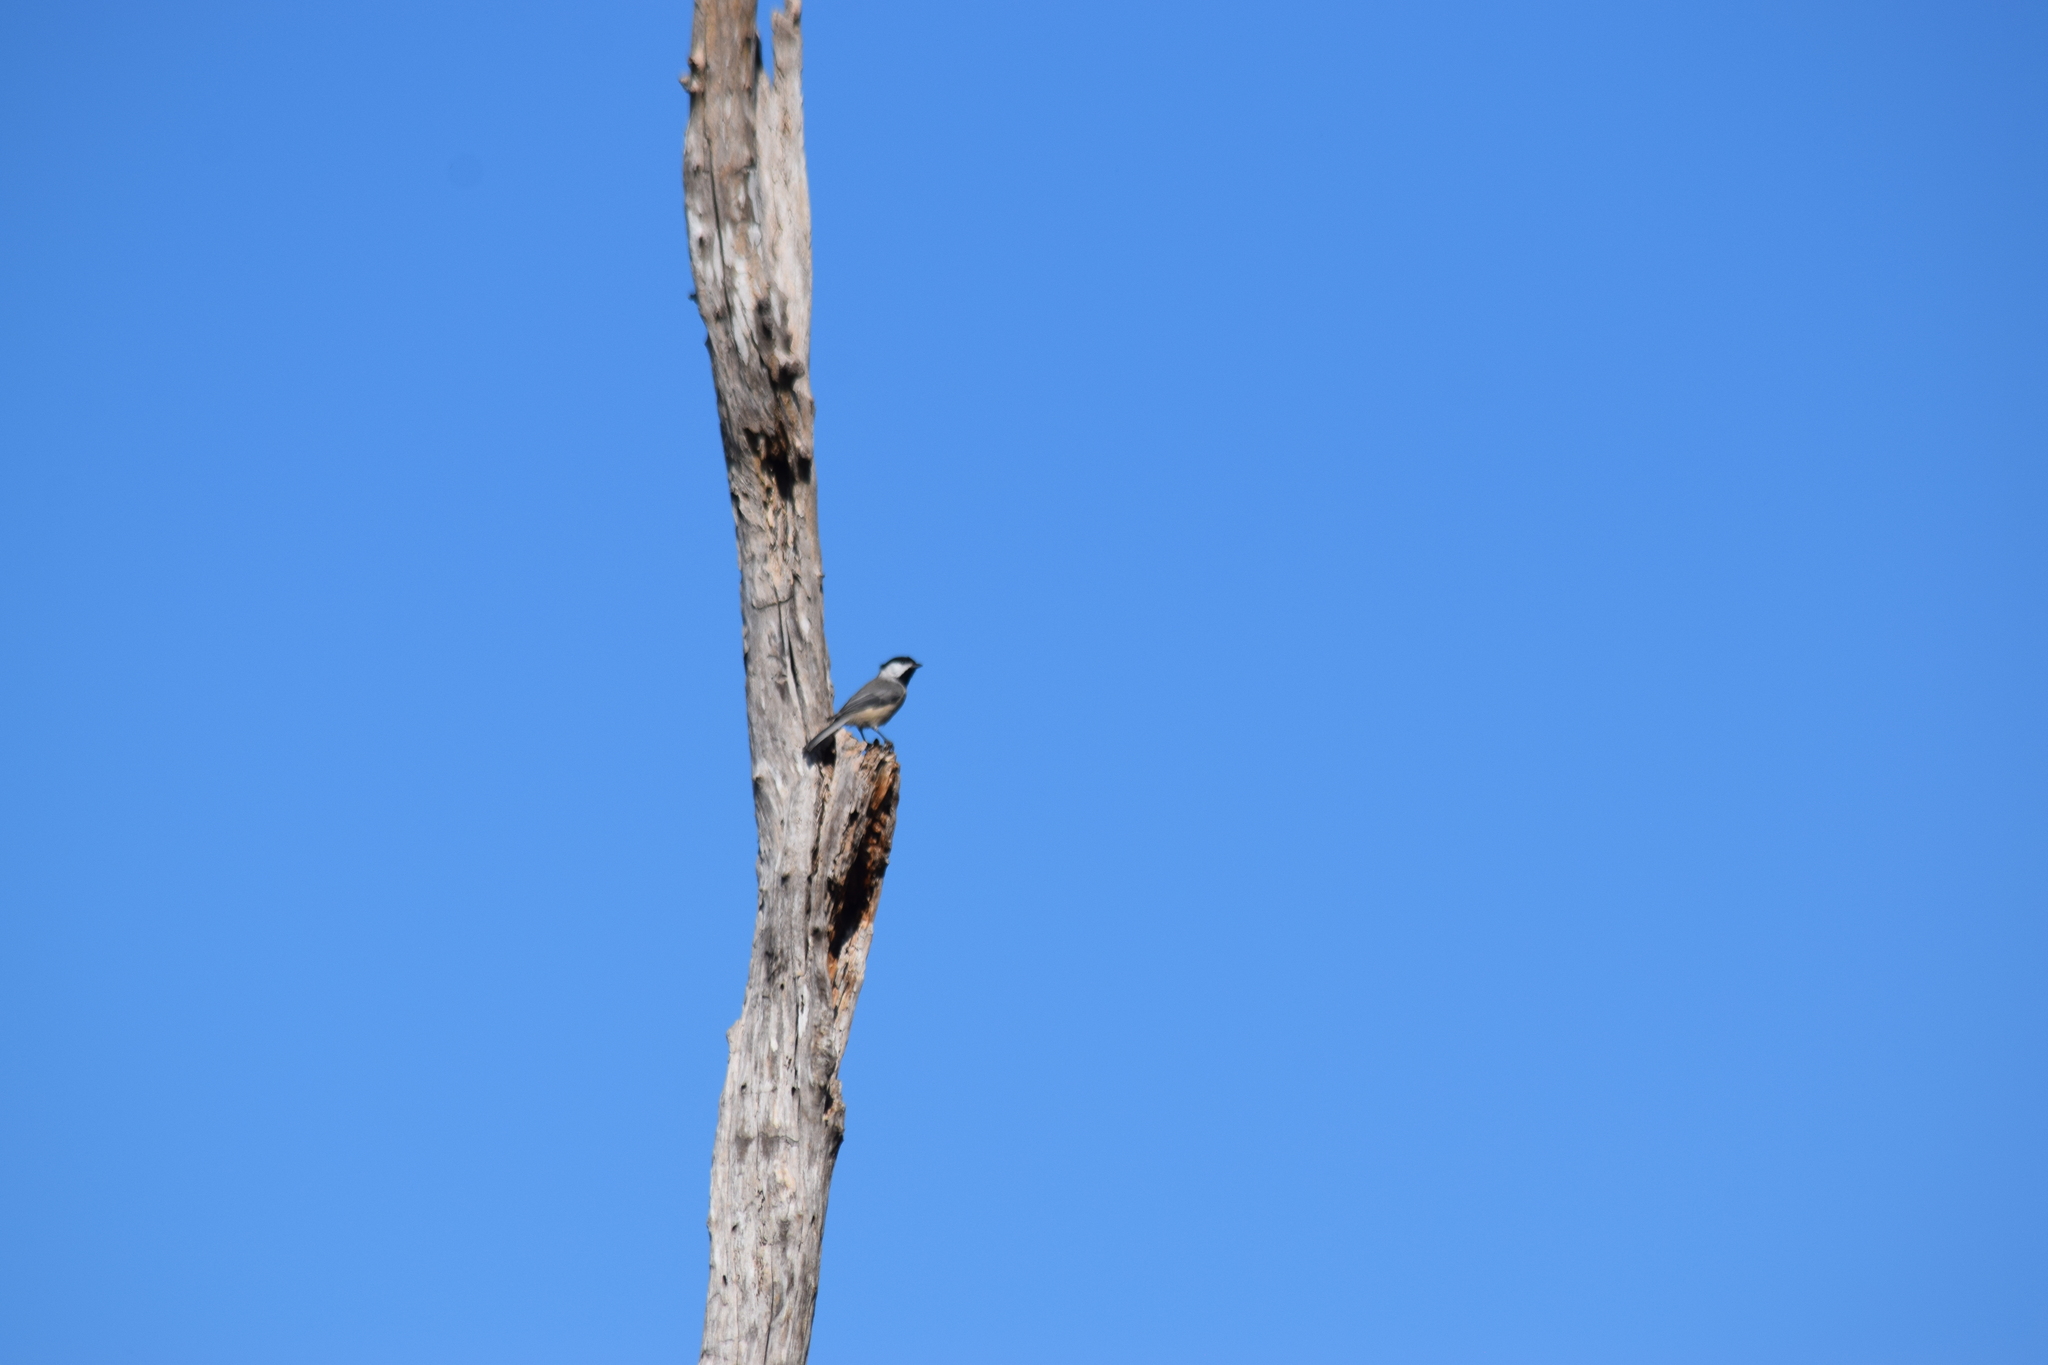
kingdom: Animalia
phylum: Chordata
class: Aves
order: Passeriformes
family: Paridae
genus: Poecile
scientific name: Poecile carolinensis
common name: Carolina chickadee
